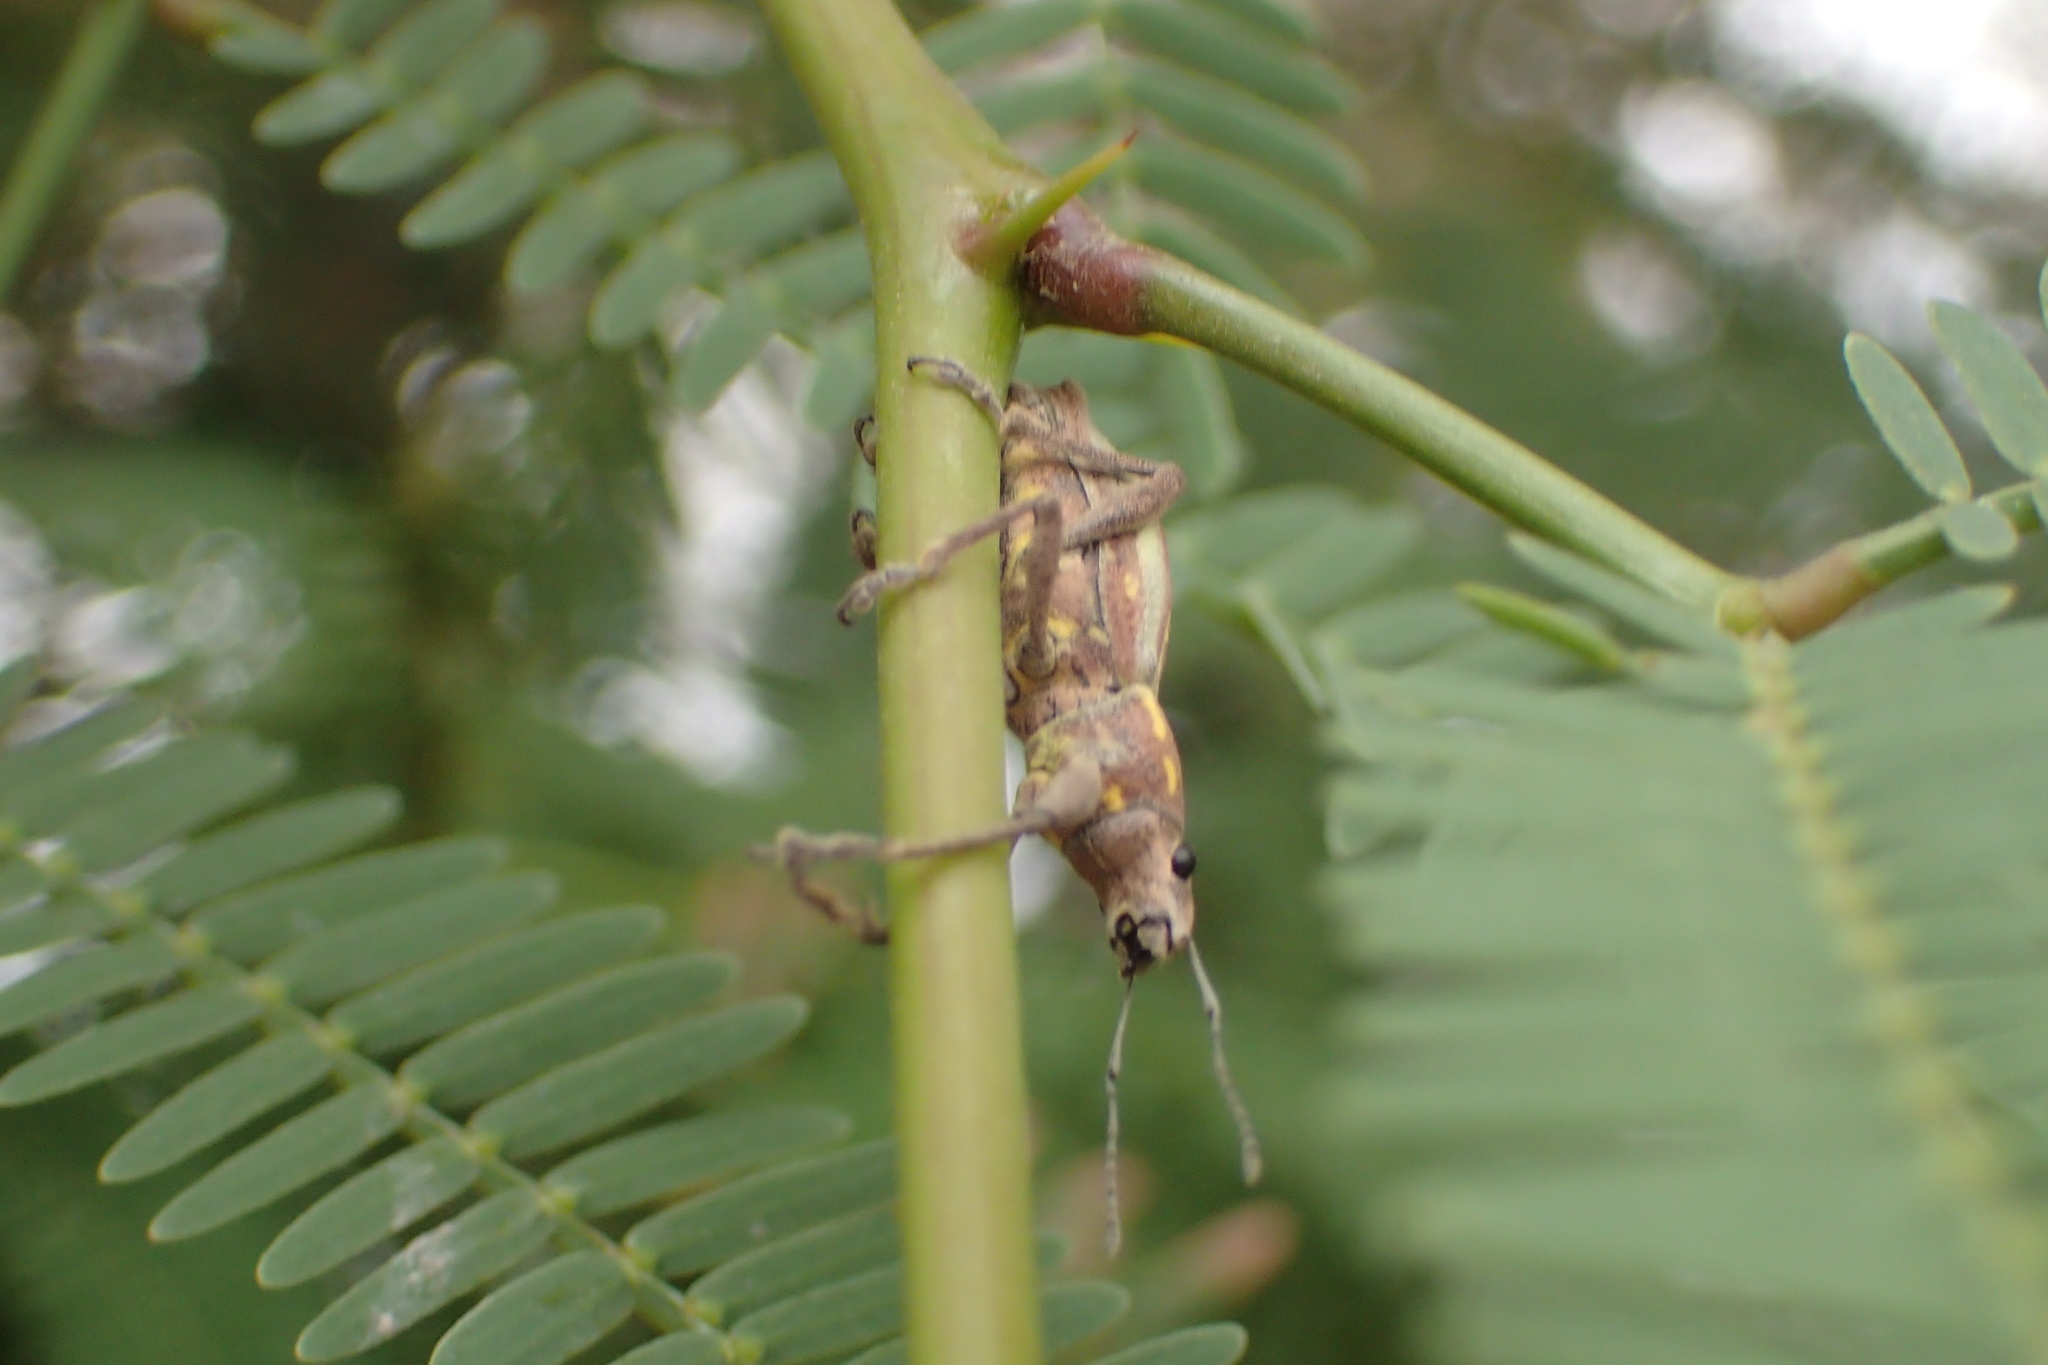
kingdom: Animalia
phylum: Arthropoda
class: Insecta
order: Coleoptera
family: Curculionidae
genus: Naupactus
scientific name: Naupactus xanthographus
